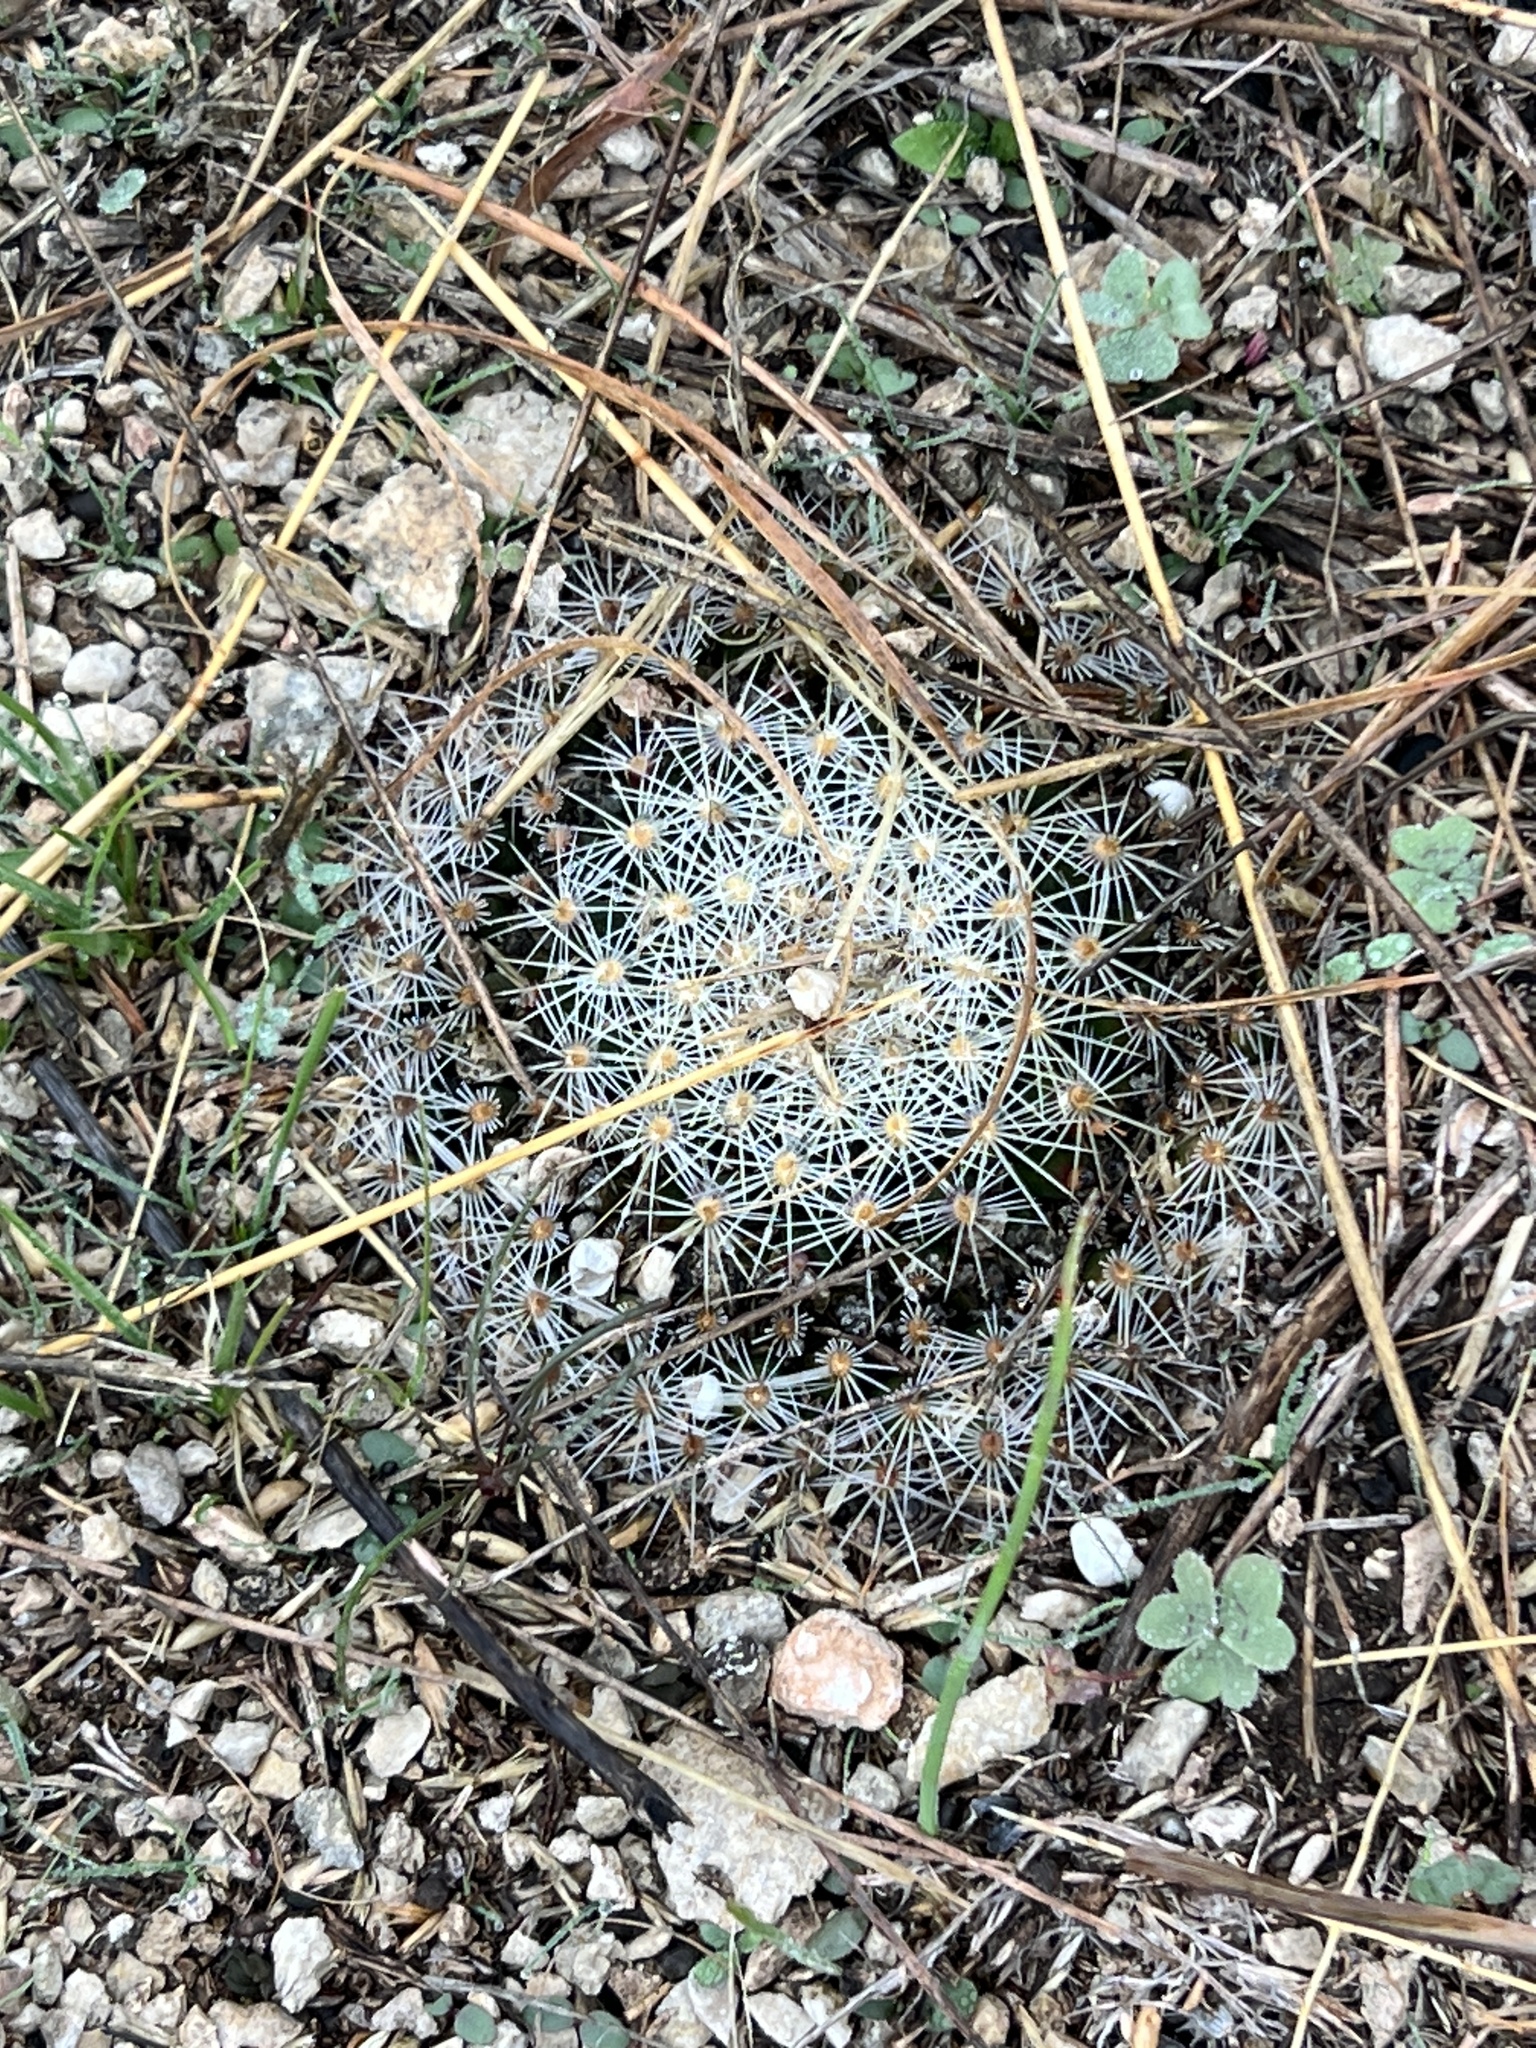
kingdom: Plantae
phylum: Tracheophyta
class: Magnoliopsida
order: Caryophyllales
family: Cactaceae
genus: Mammillaria
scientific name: Mammillaria heyderi
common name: Little nipple cactus
